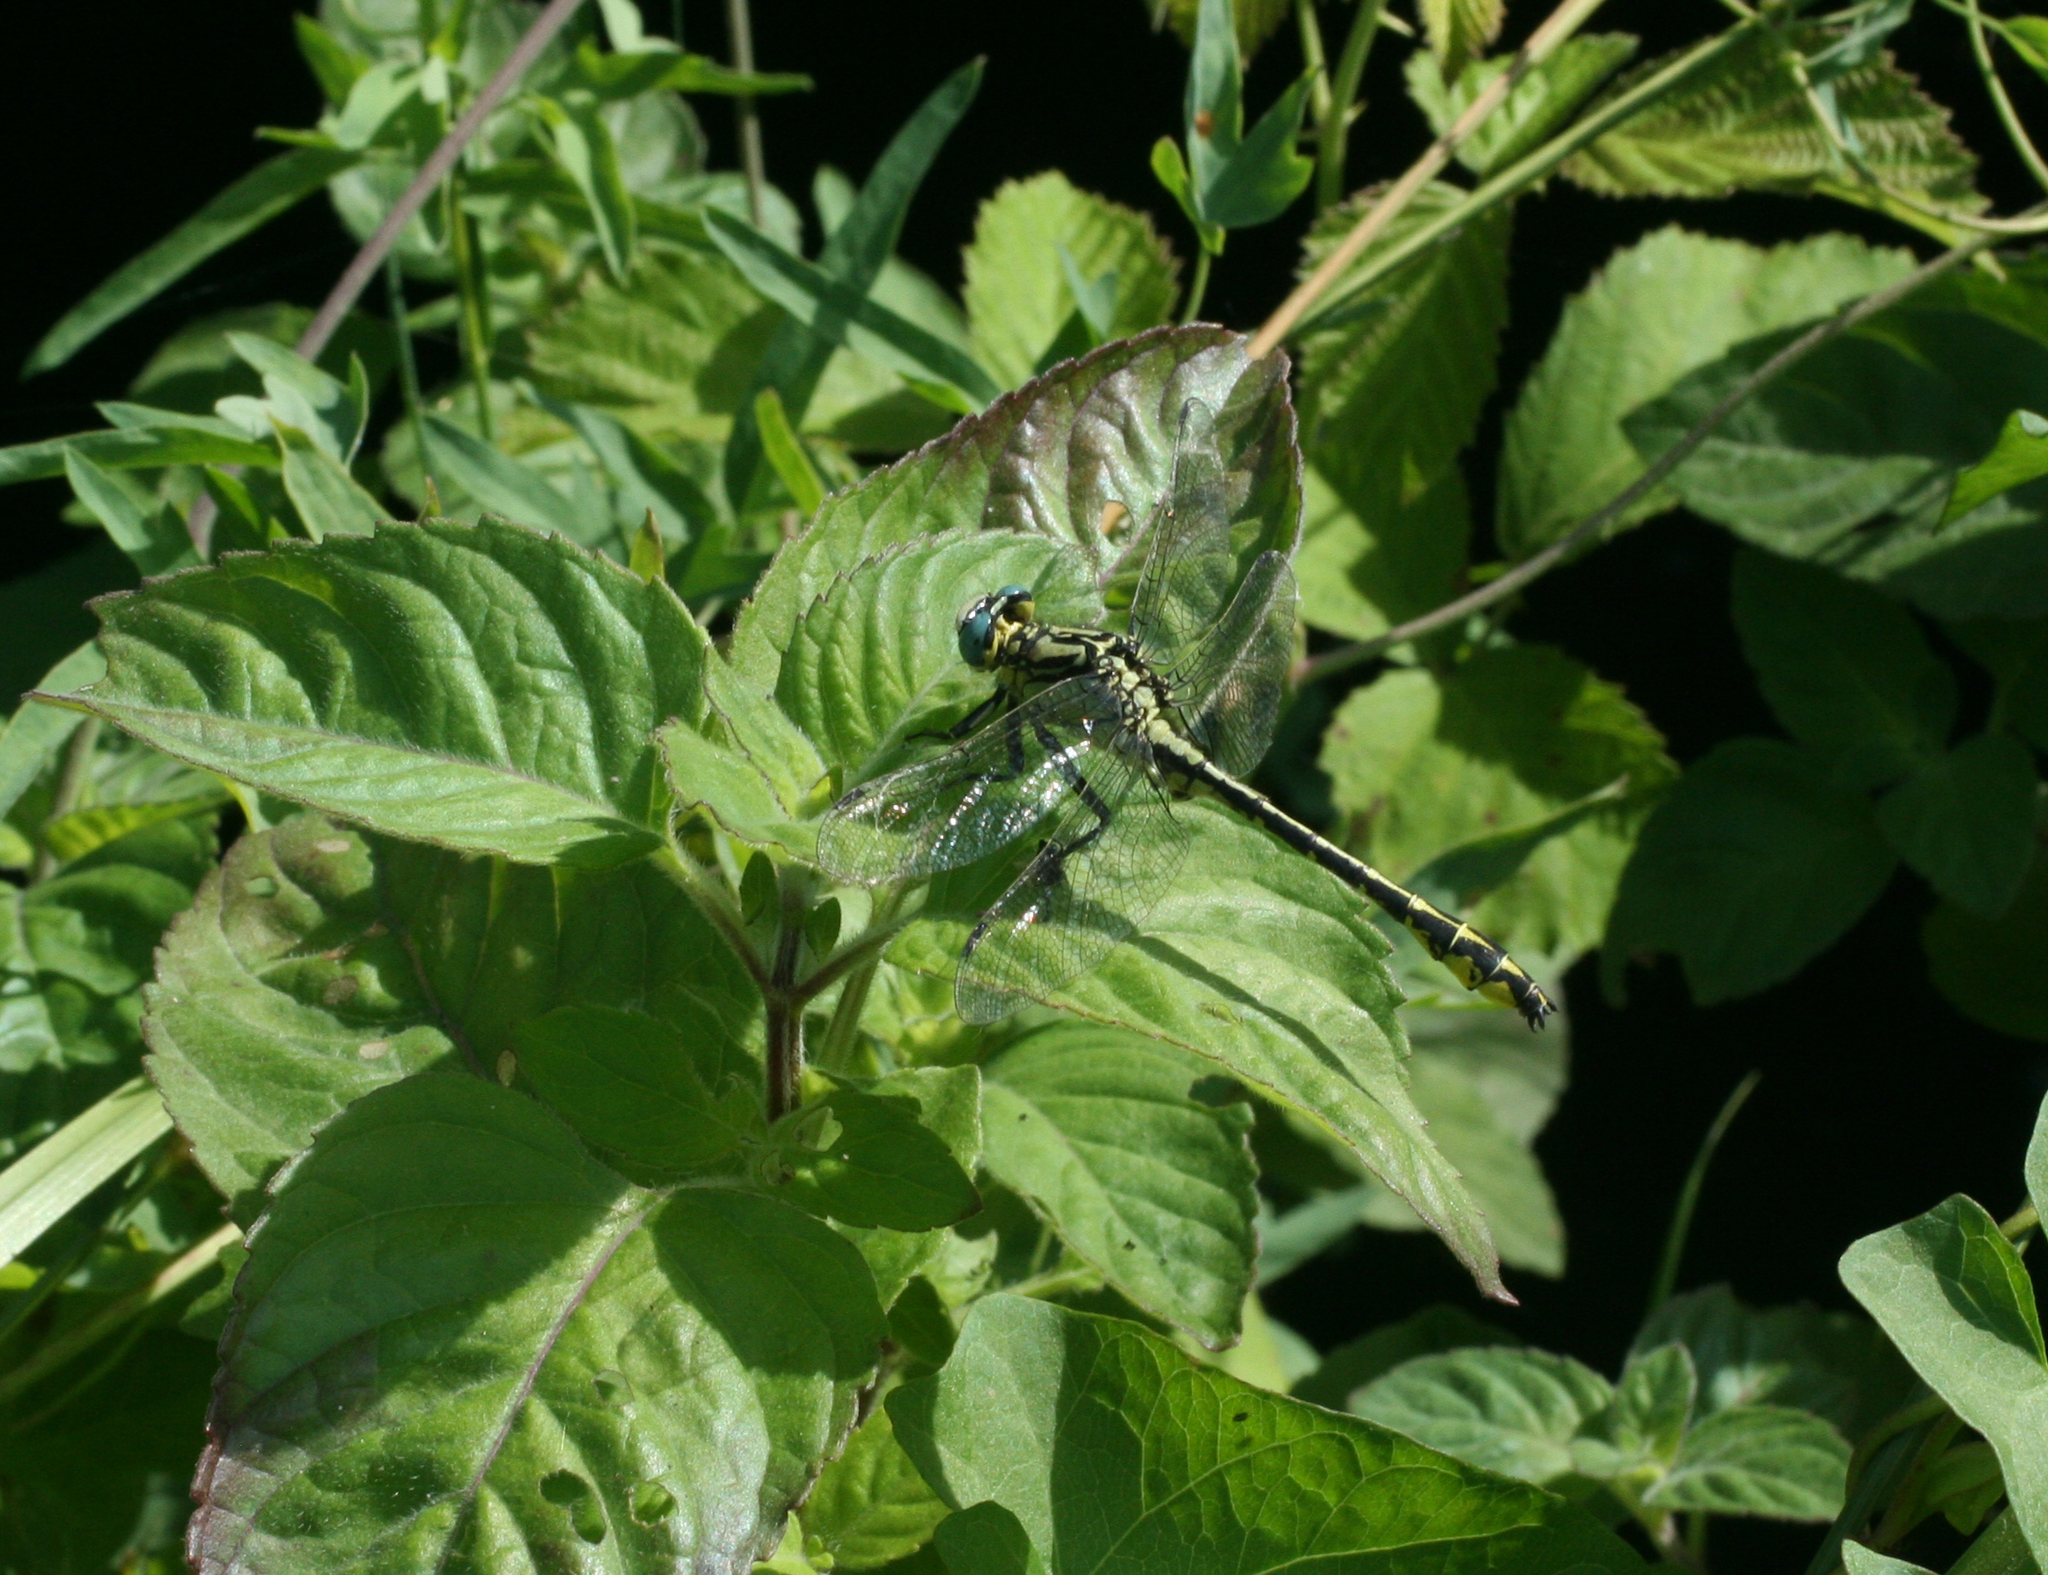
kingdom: Animalia
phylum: Arthropoda
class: Insecta
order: Odonata
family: Gomphidae
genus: Gomphus
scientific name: Gomphus schneiderii
